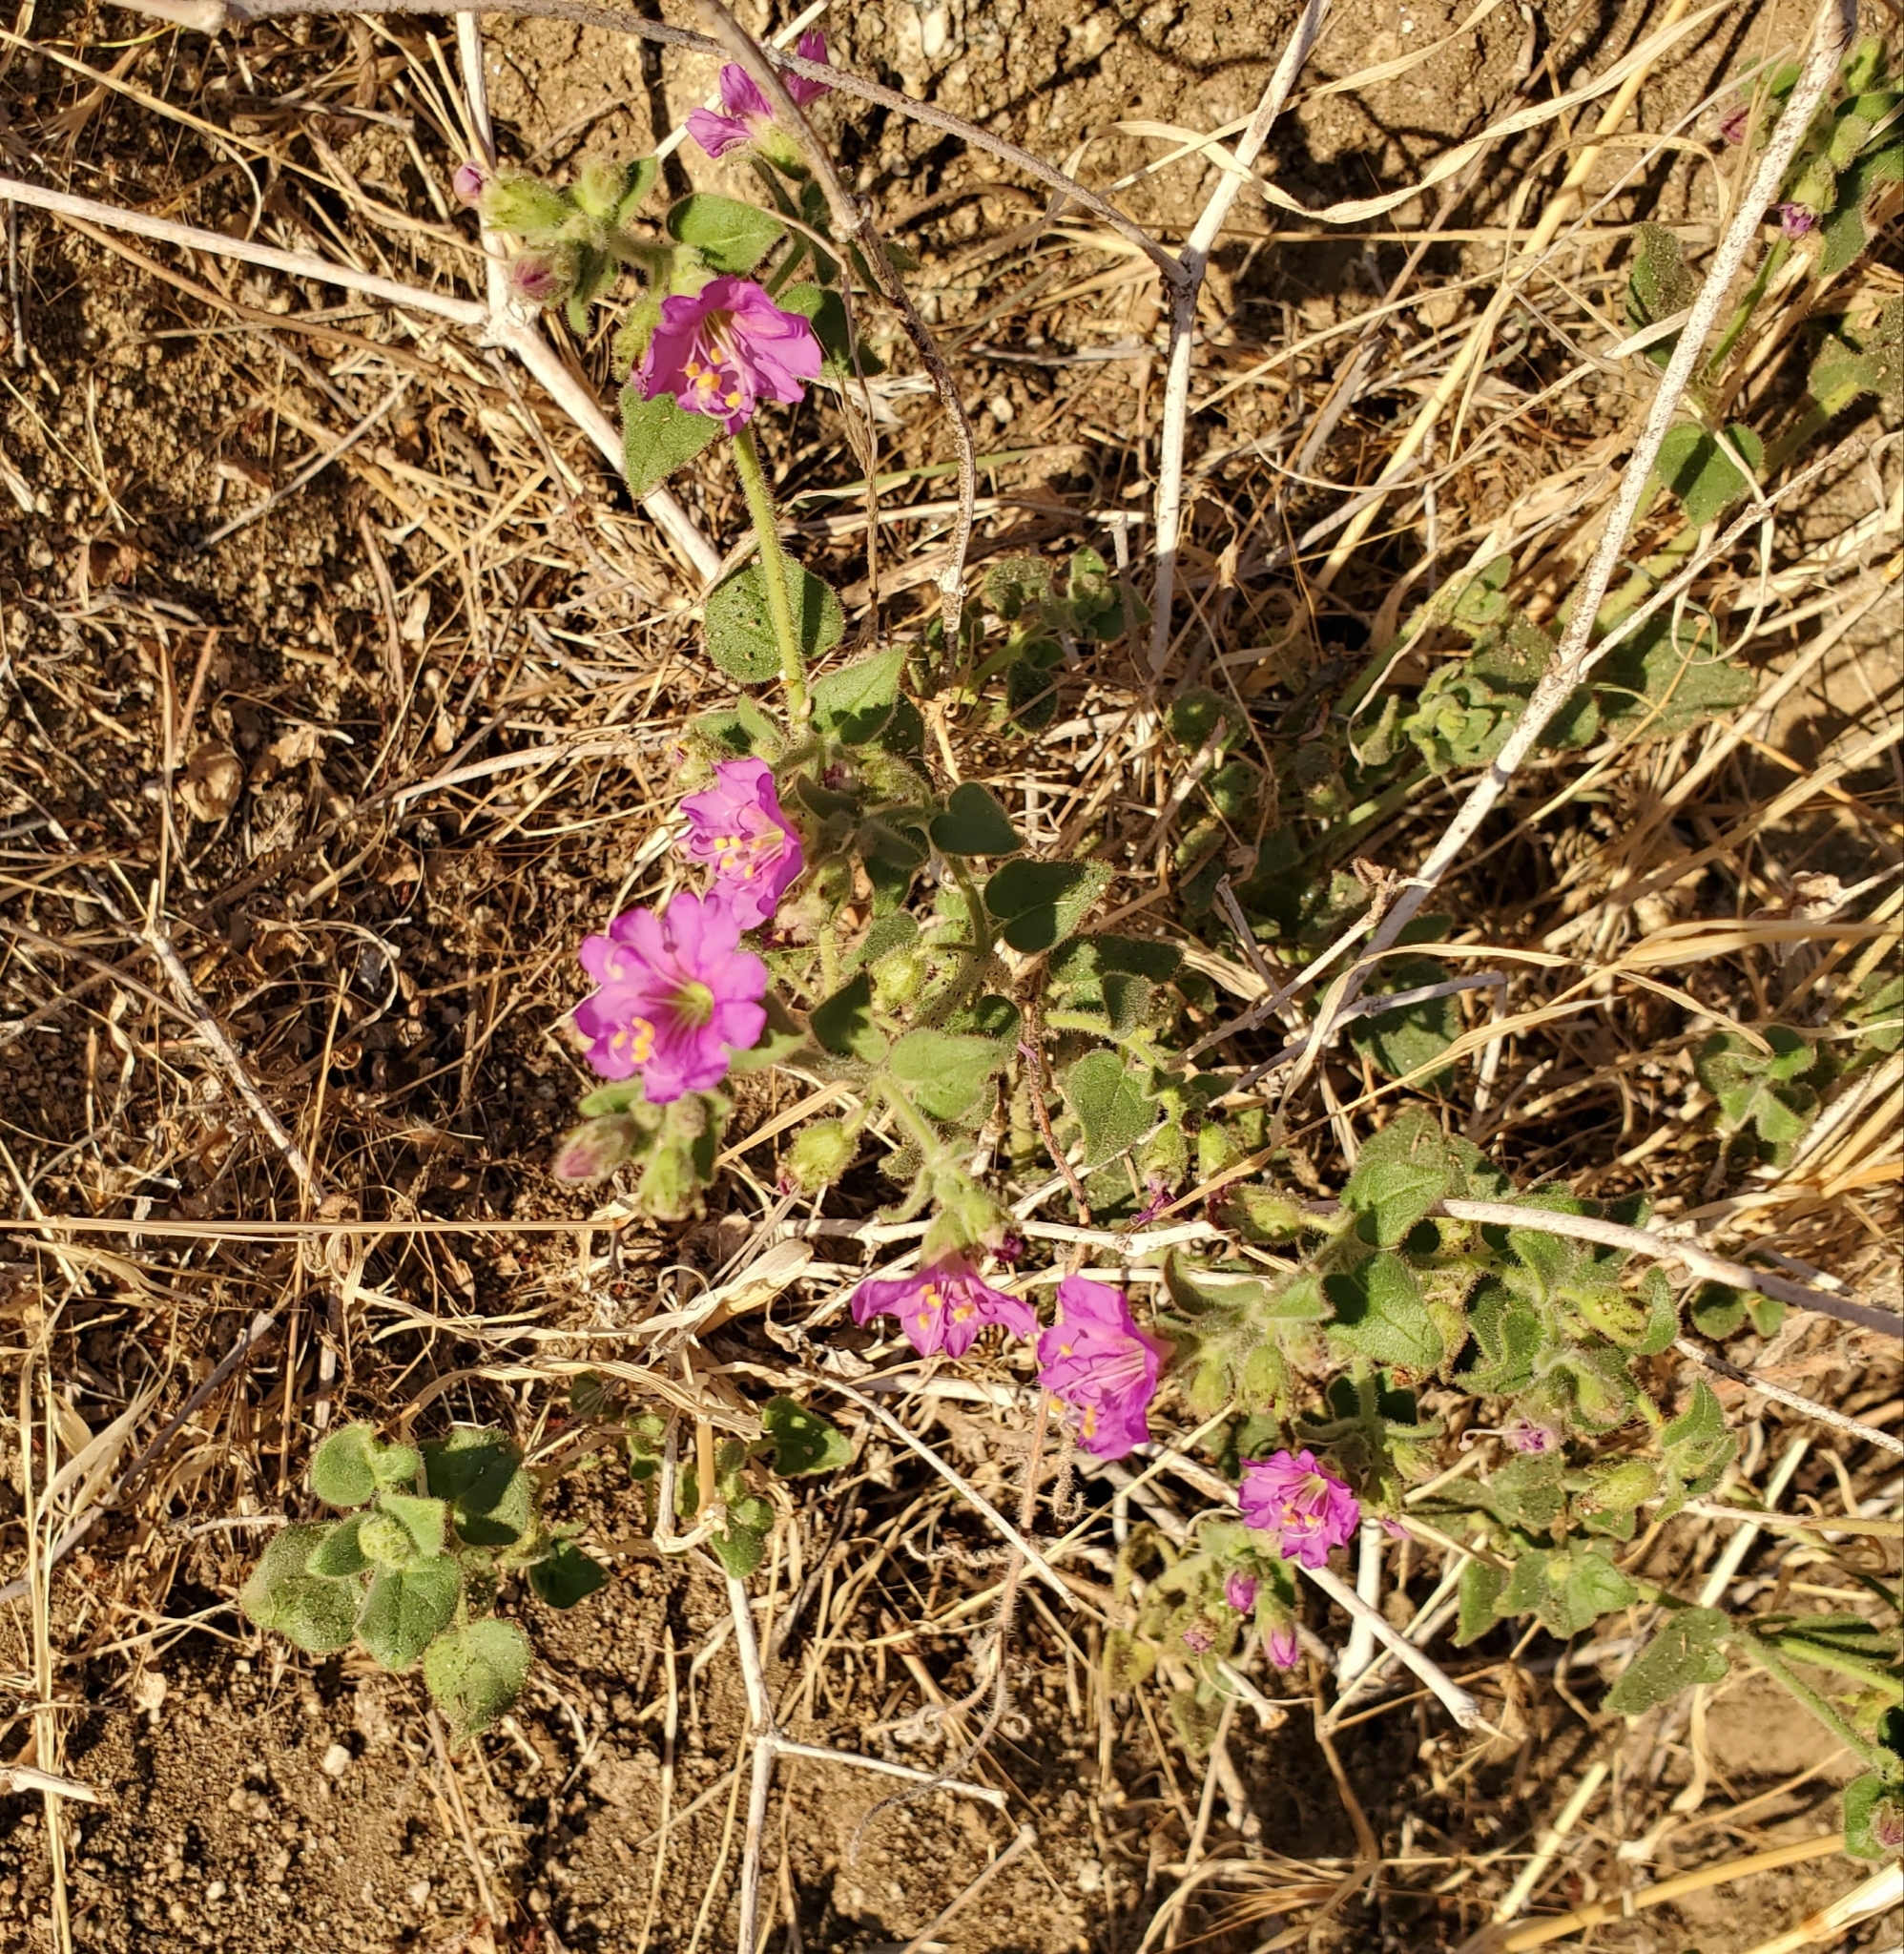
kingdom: Plantae
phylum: Tracheophyta
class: Magnoliopsida
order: Caryophyllales
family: Nyctaginaceae
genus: Mirabilis
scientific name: Mirabilis laevis
